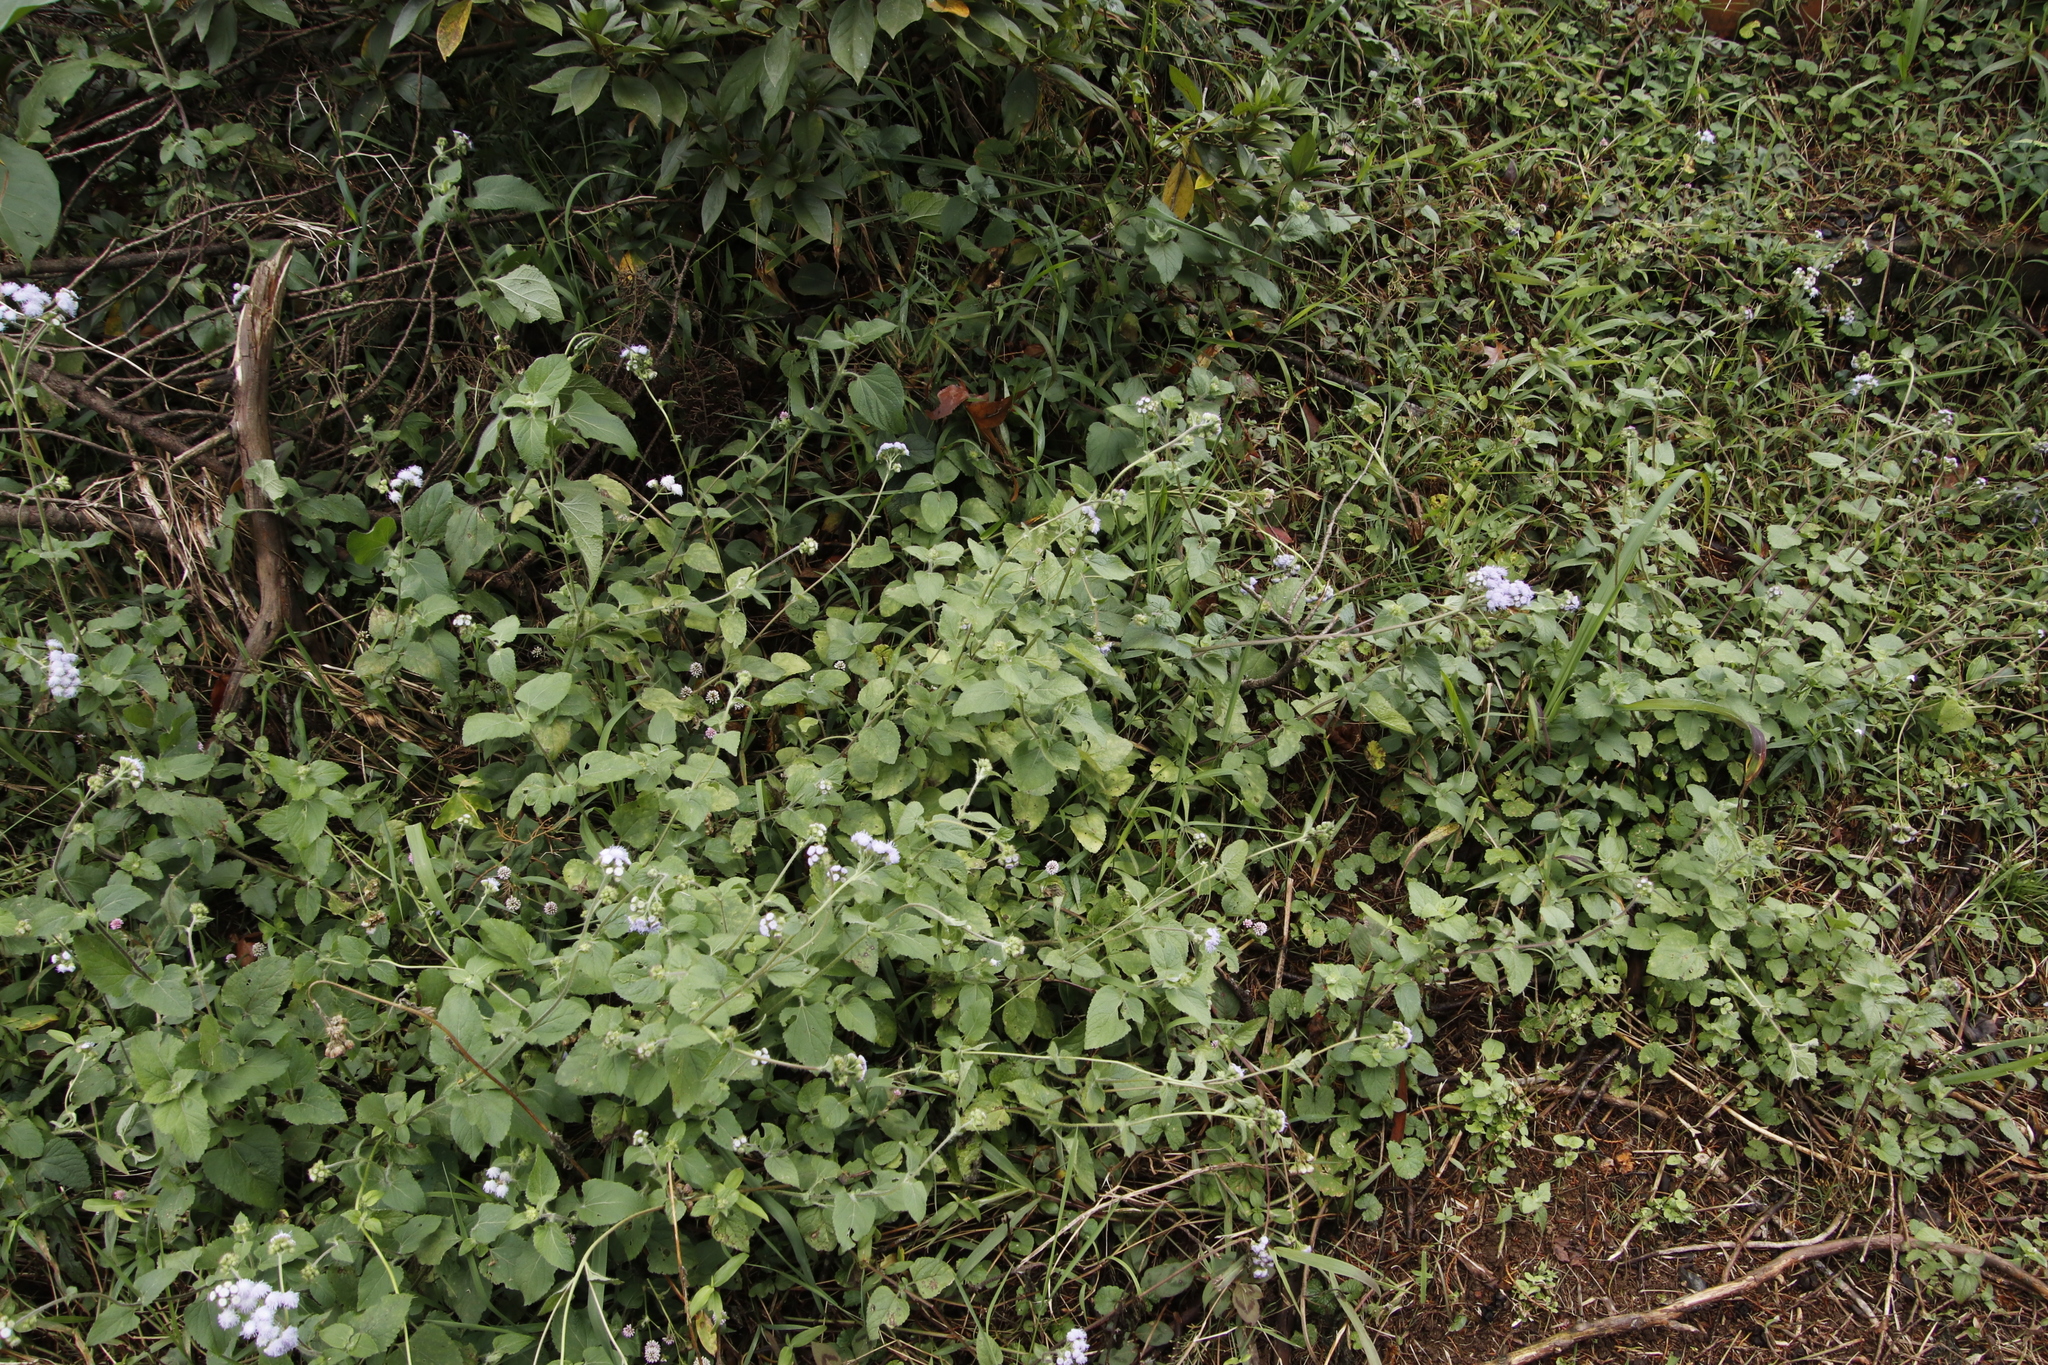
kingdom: Plantae
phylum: Tracheophyta
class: Magnoliopsida
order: Asterales
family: Asteraceae
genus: Ageratum
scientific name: Ageratum houstonianum
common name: Bluemink
